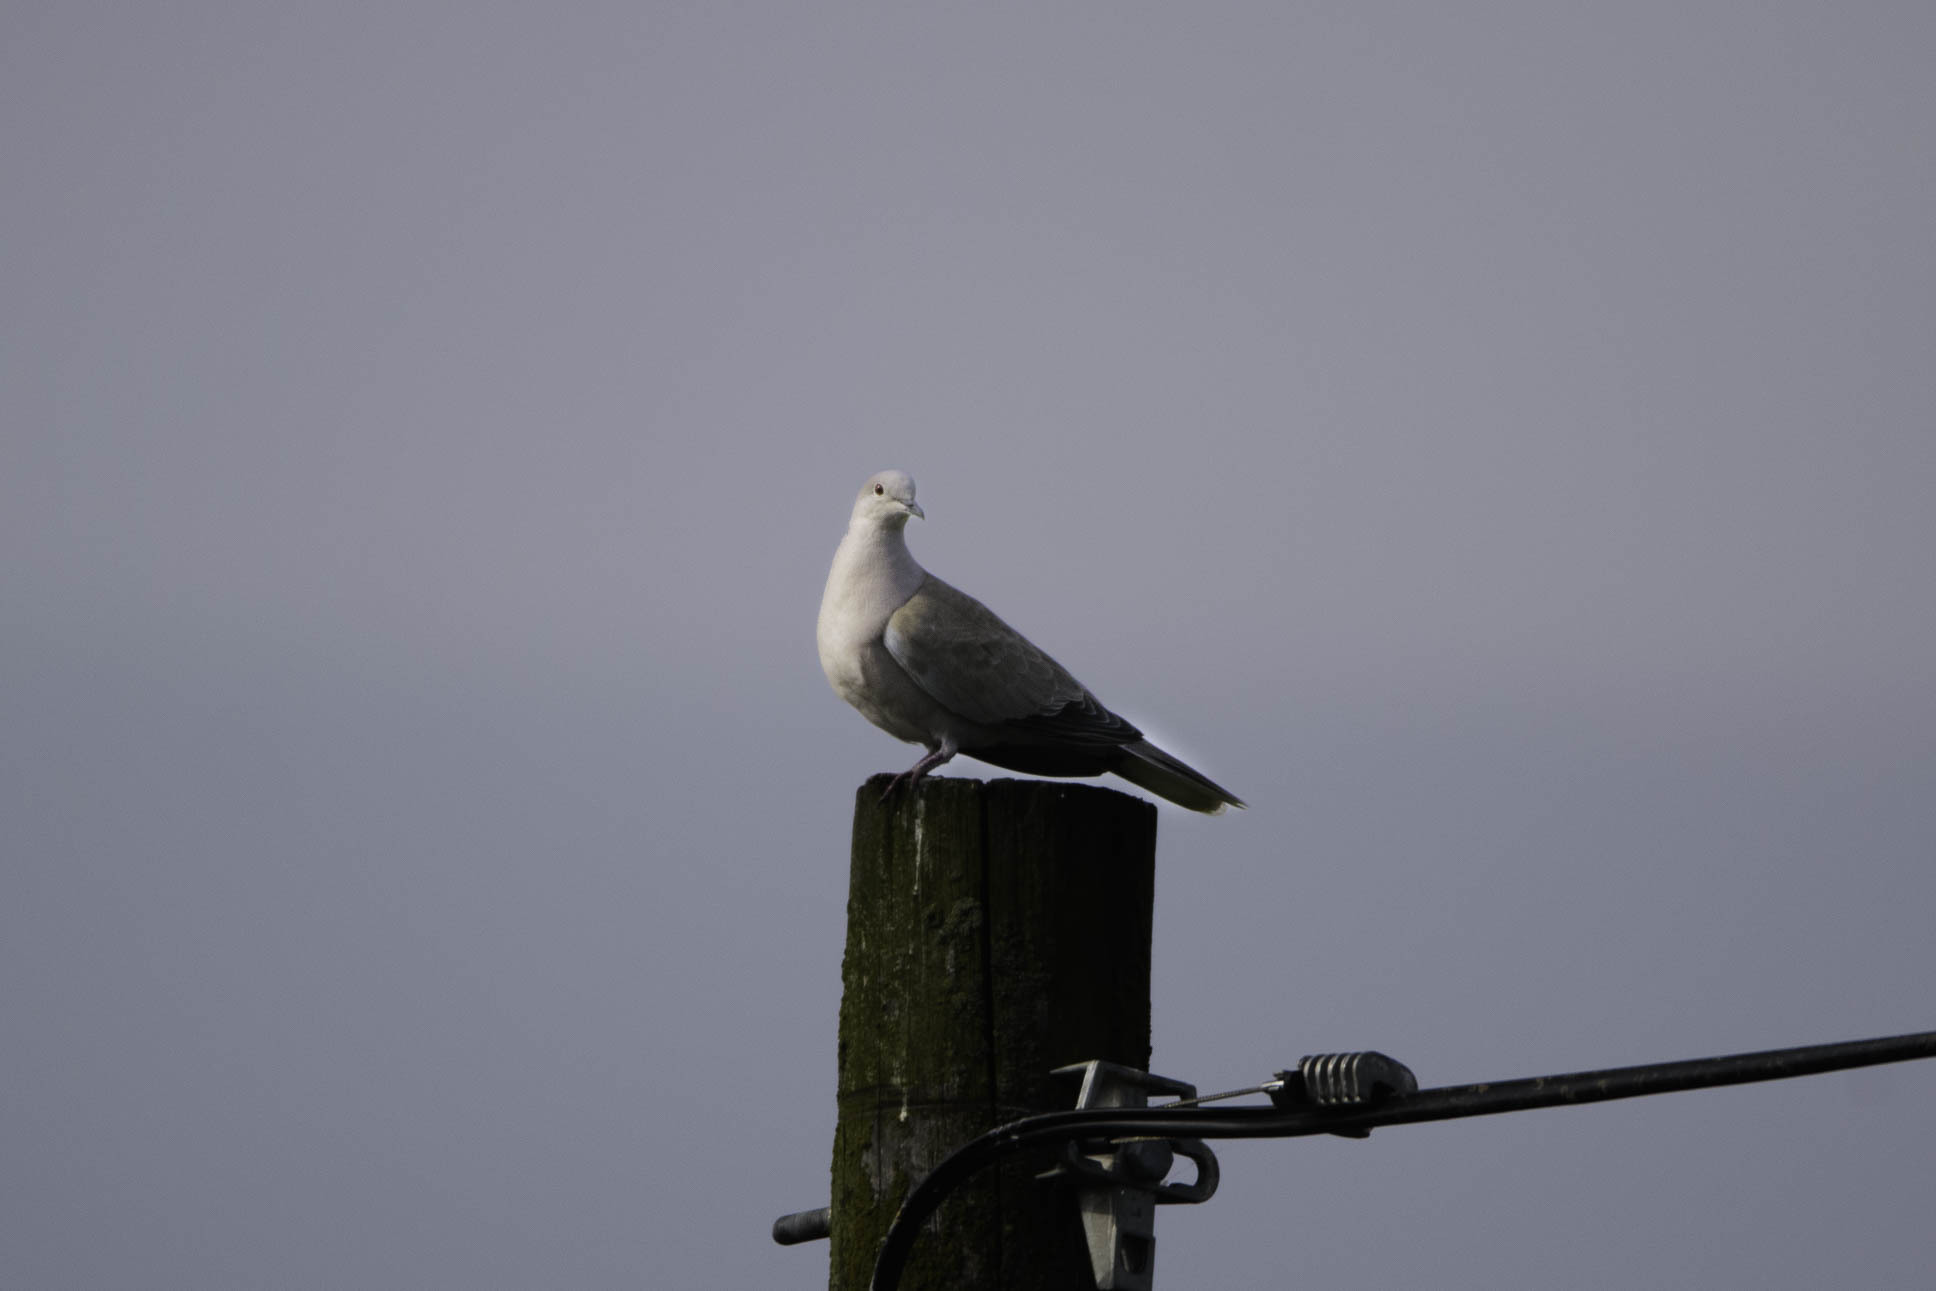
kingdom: Animalia
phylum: Chordata
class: Aves
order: Columbiformes
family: Columbidae
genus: Streptopelia
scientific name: Streptopelia decaocto
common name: Eurasian collared dove
